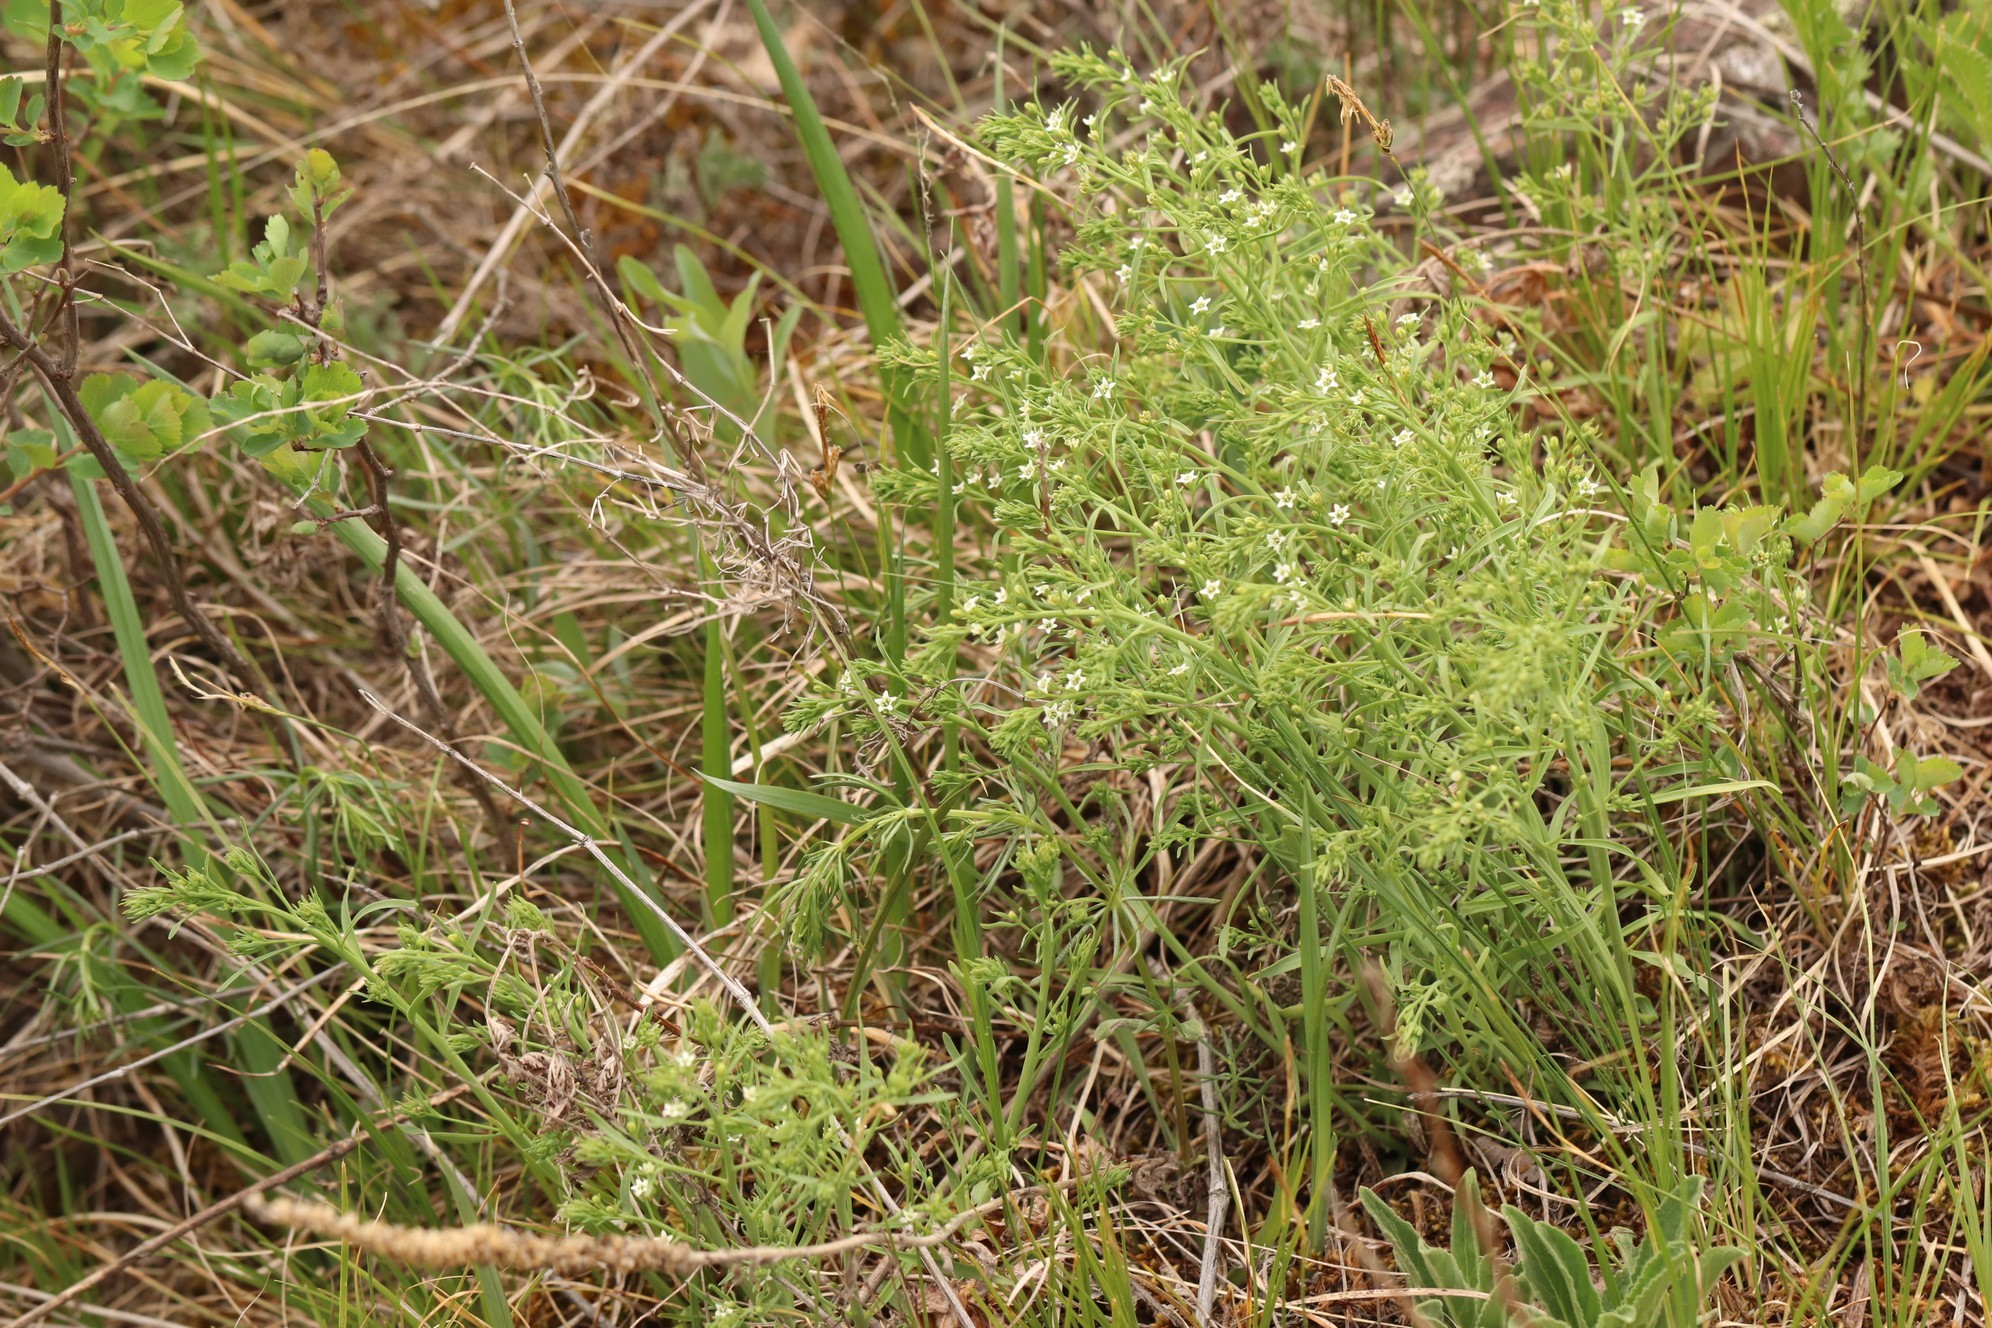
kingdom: Plantae
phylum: Tracheophyta
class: Magnoliopsida
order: Santalales
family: Thesiaceae
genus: Thesium
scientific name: Thesium refractum
